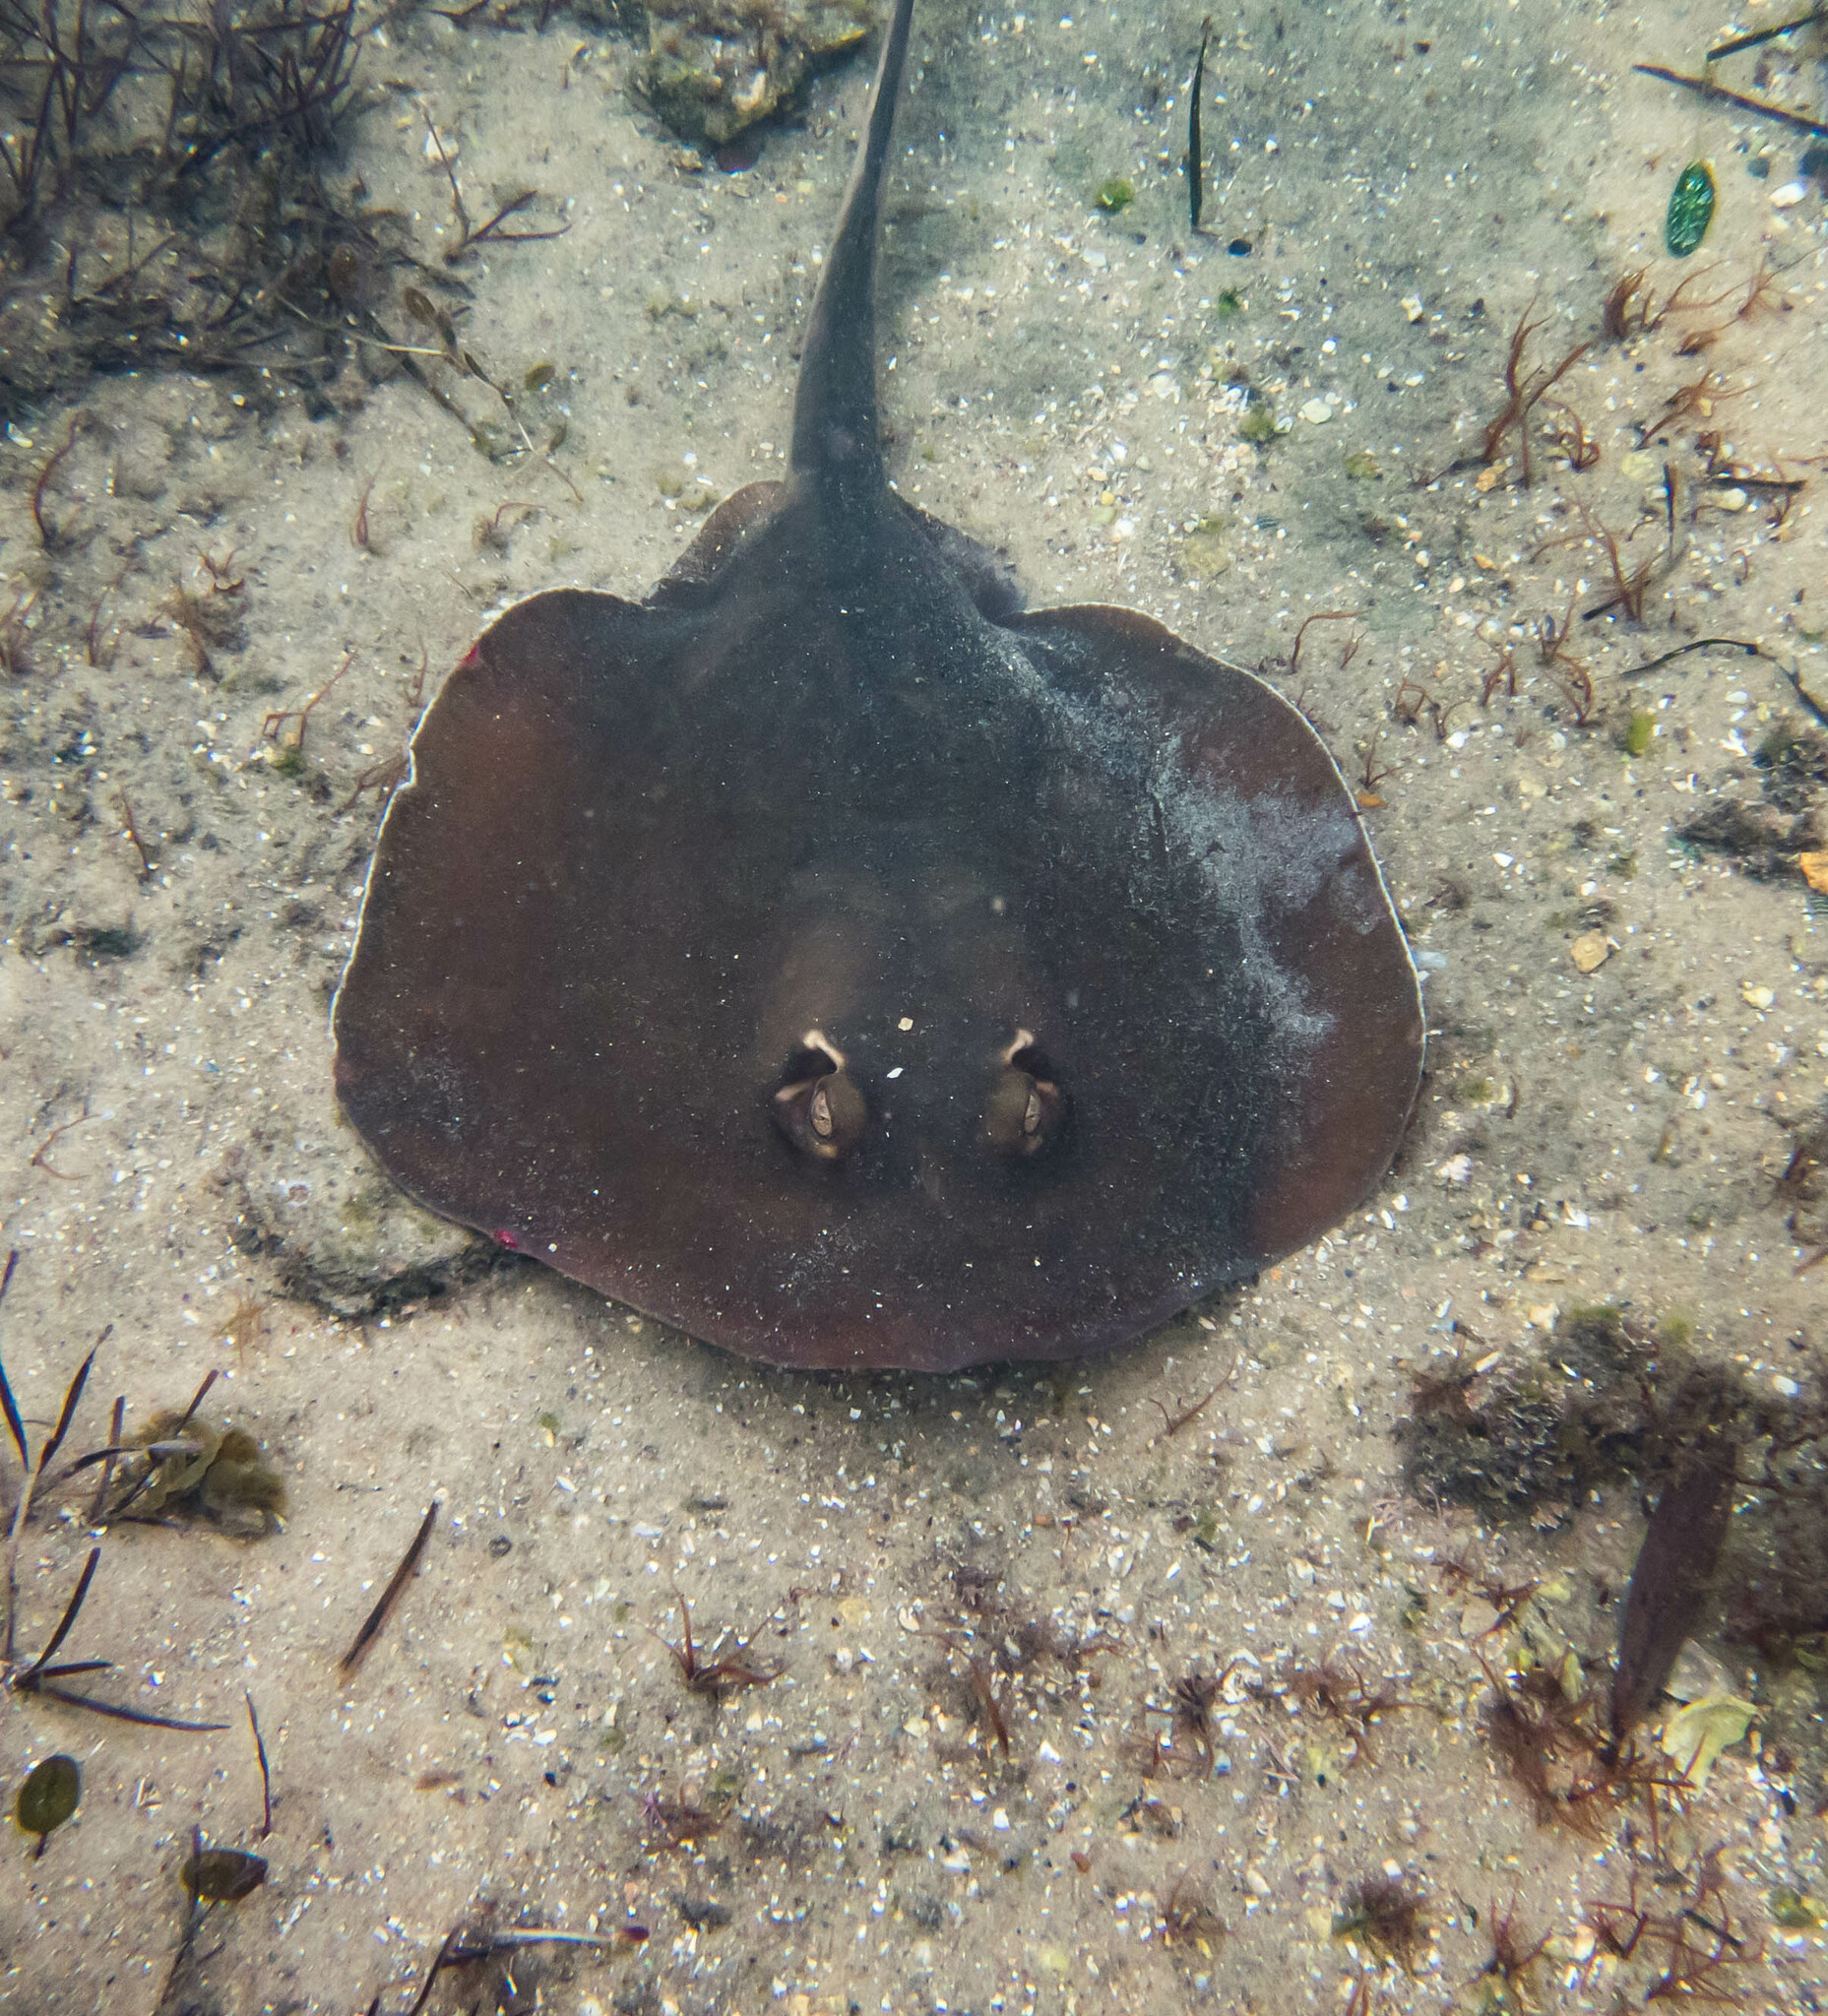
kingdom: Animalia
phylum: Chordata
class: Elasmobranchii
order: Myliobatiformes
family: Urolophidae
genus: Trygonoptera
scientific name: Trygonoptera testacea
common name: Common stingaree
